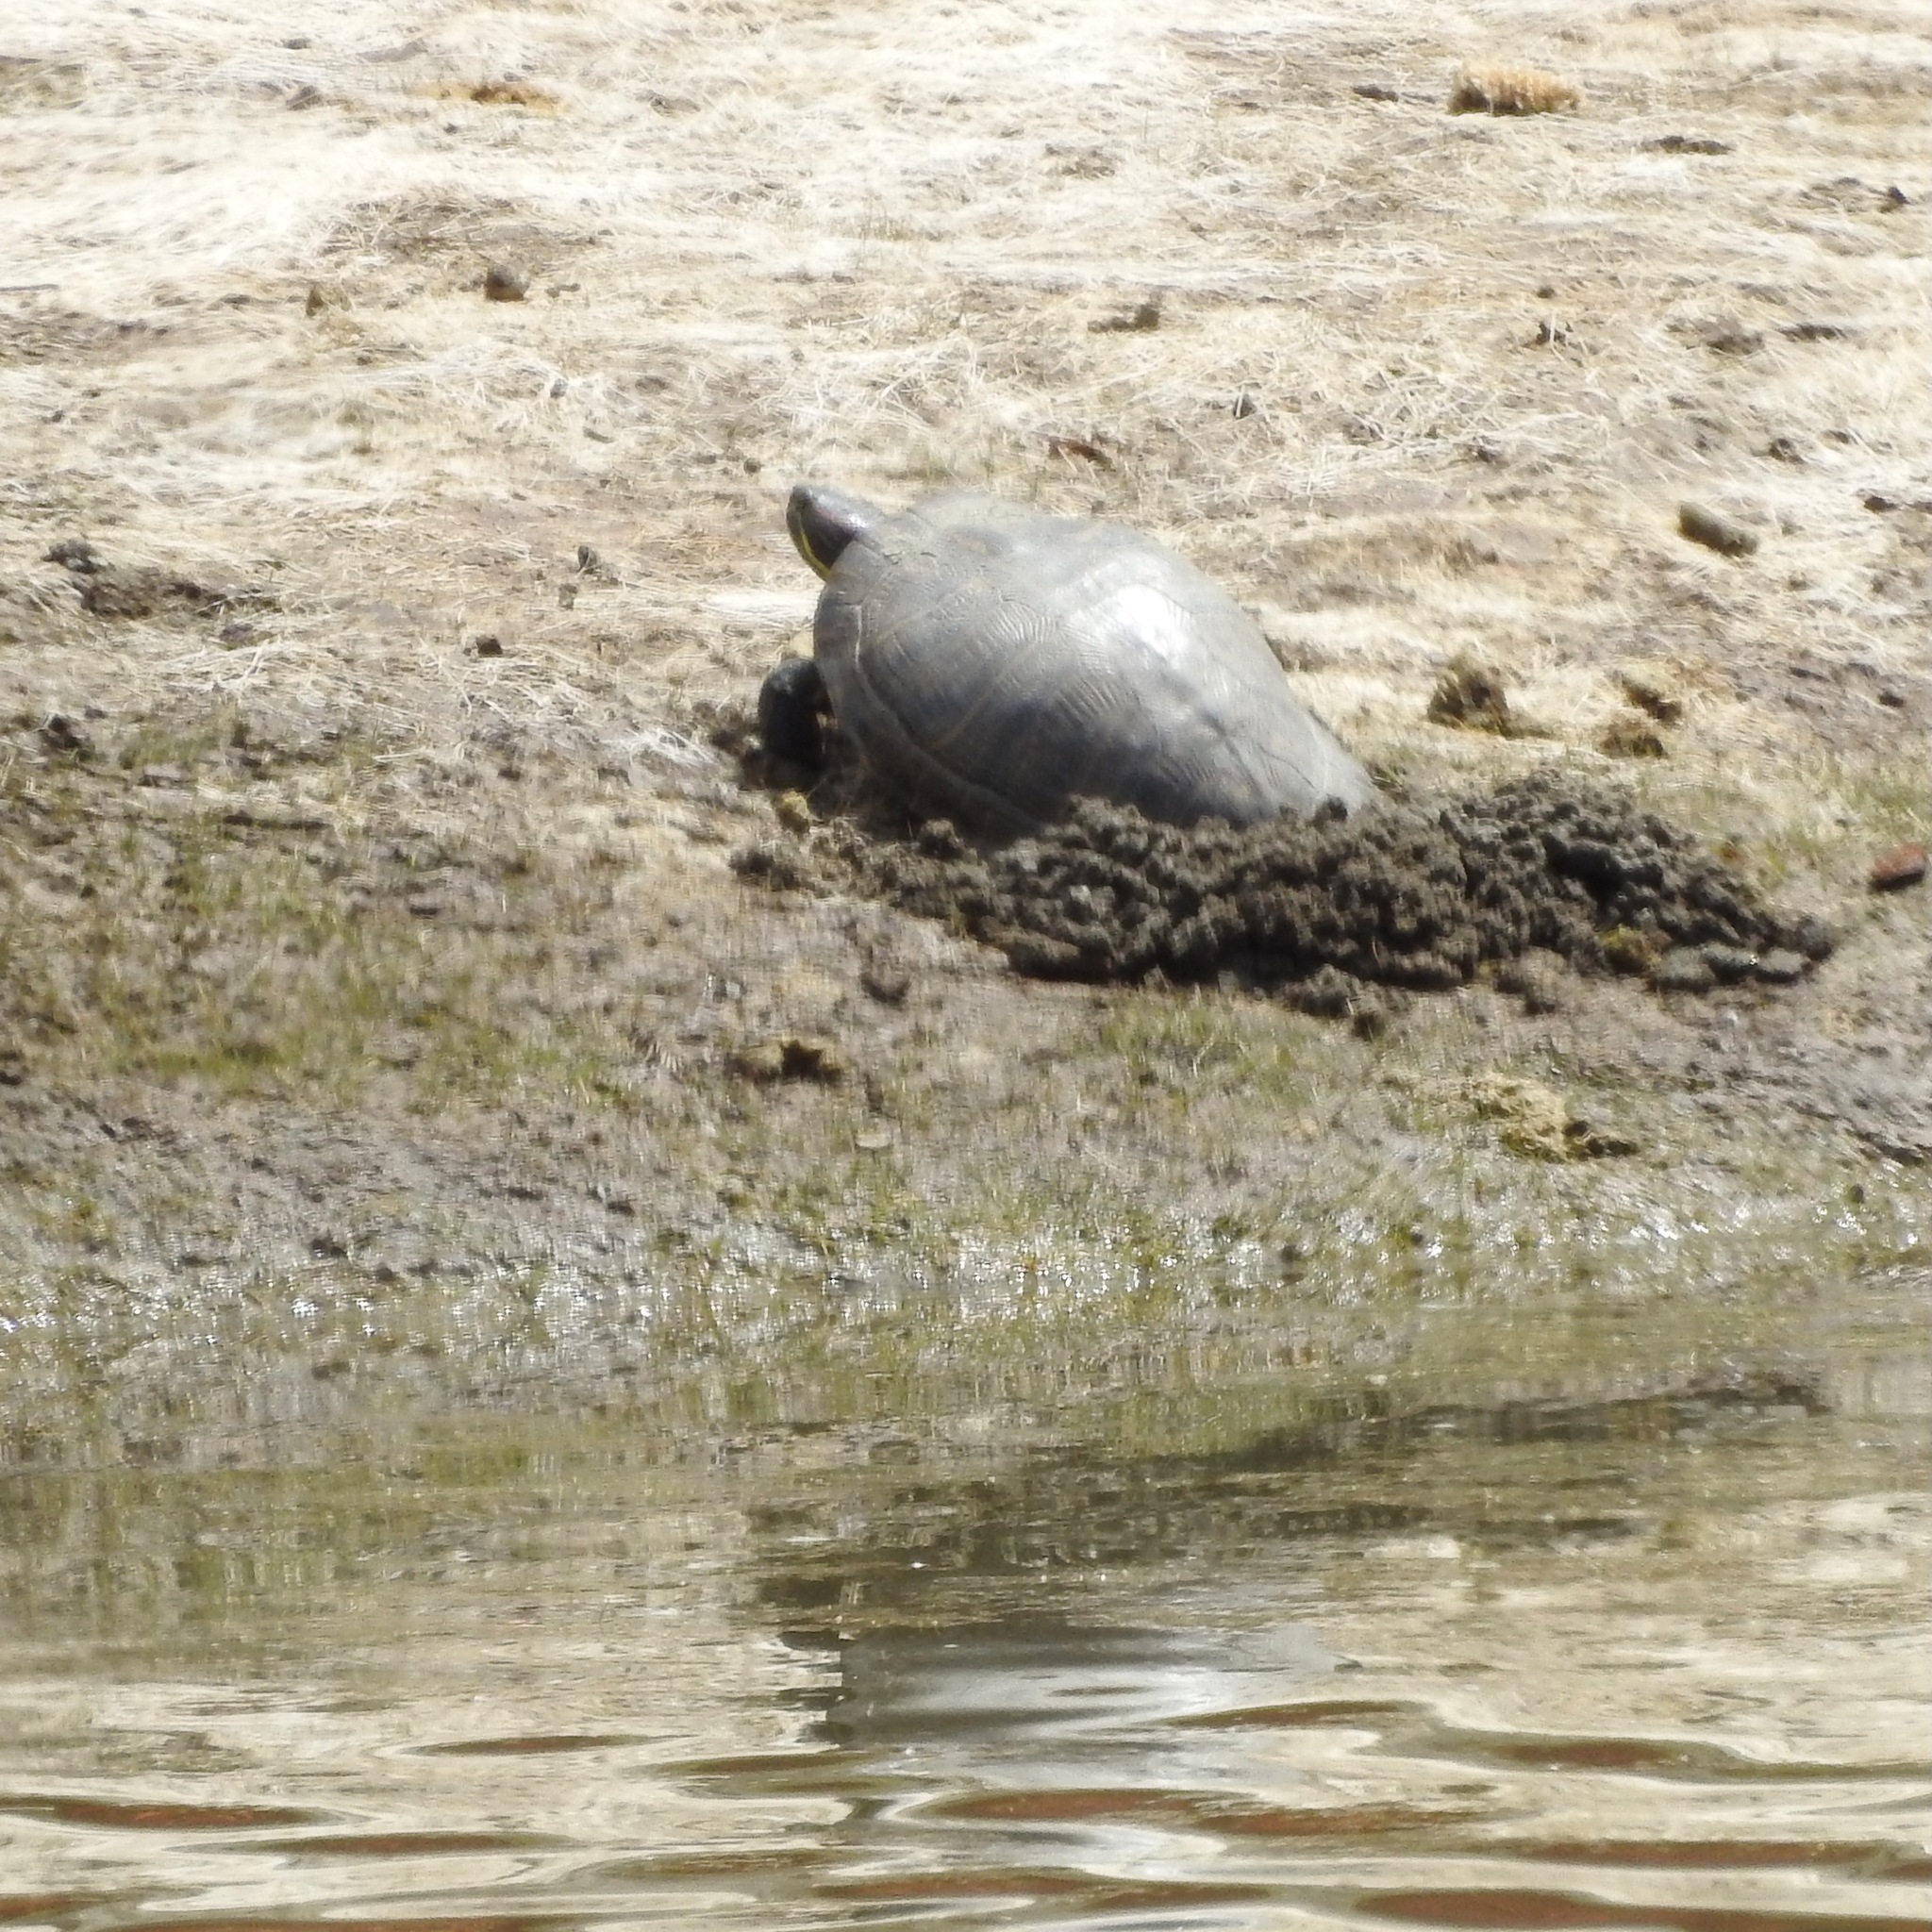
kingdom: Animalia
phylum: Chordata
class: Testudines
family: Emydidae
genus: Trachemys
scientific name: Trachemys scripta
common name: Slider
